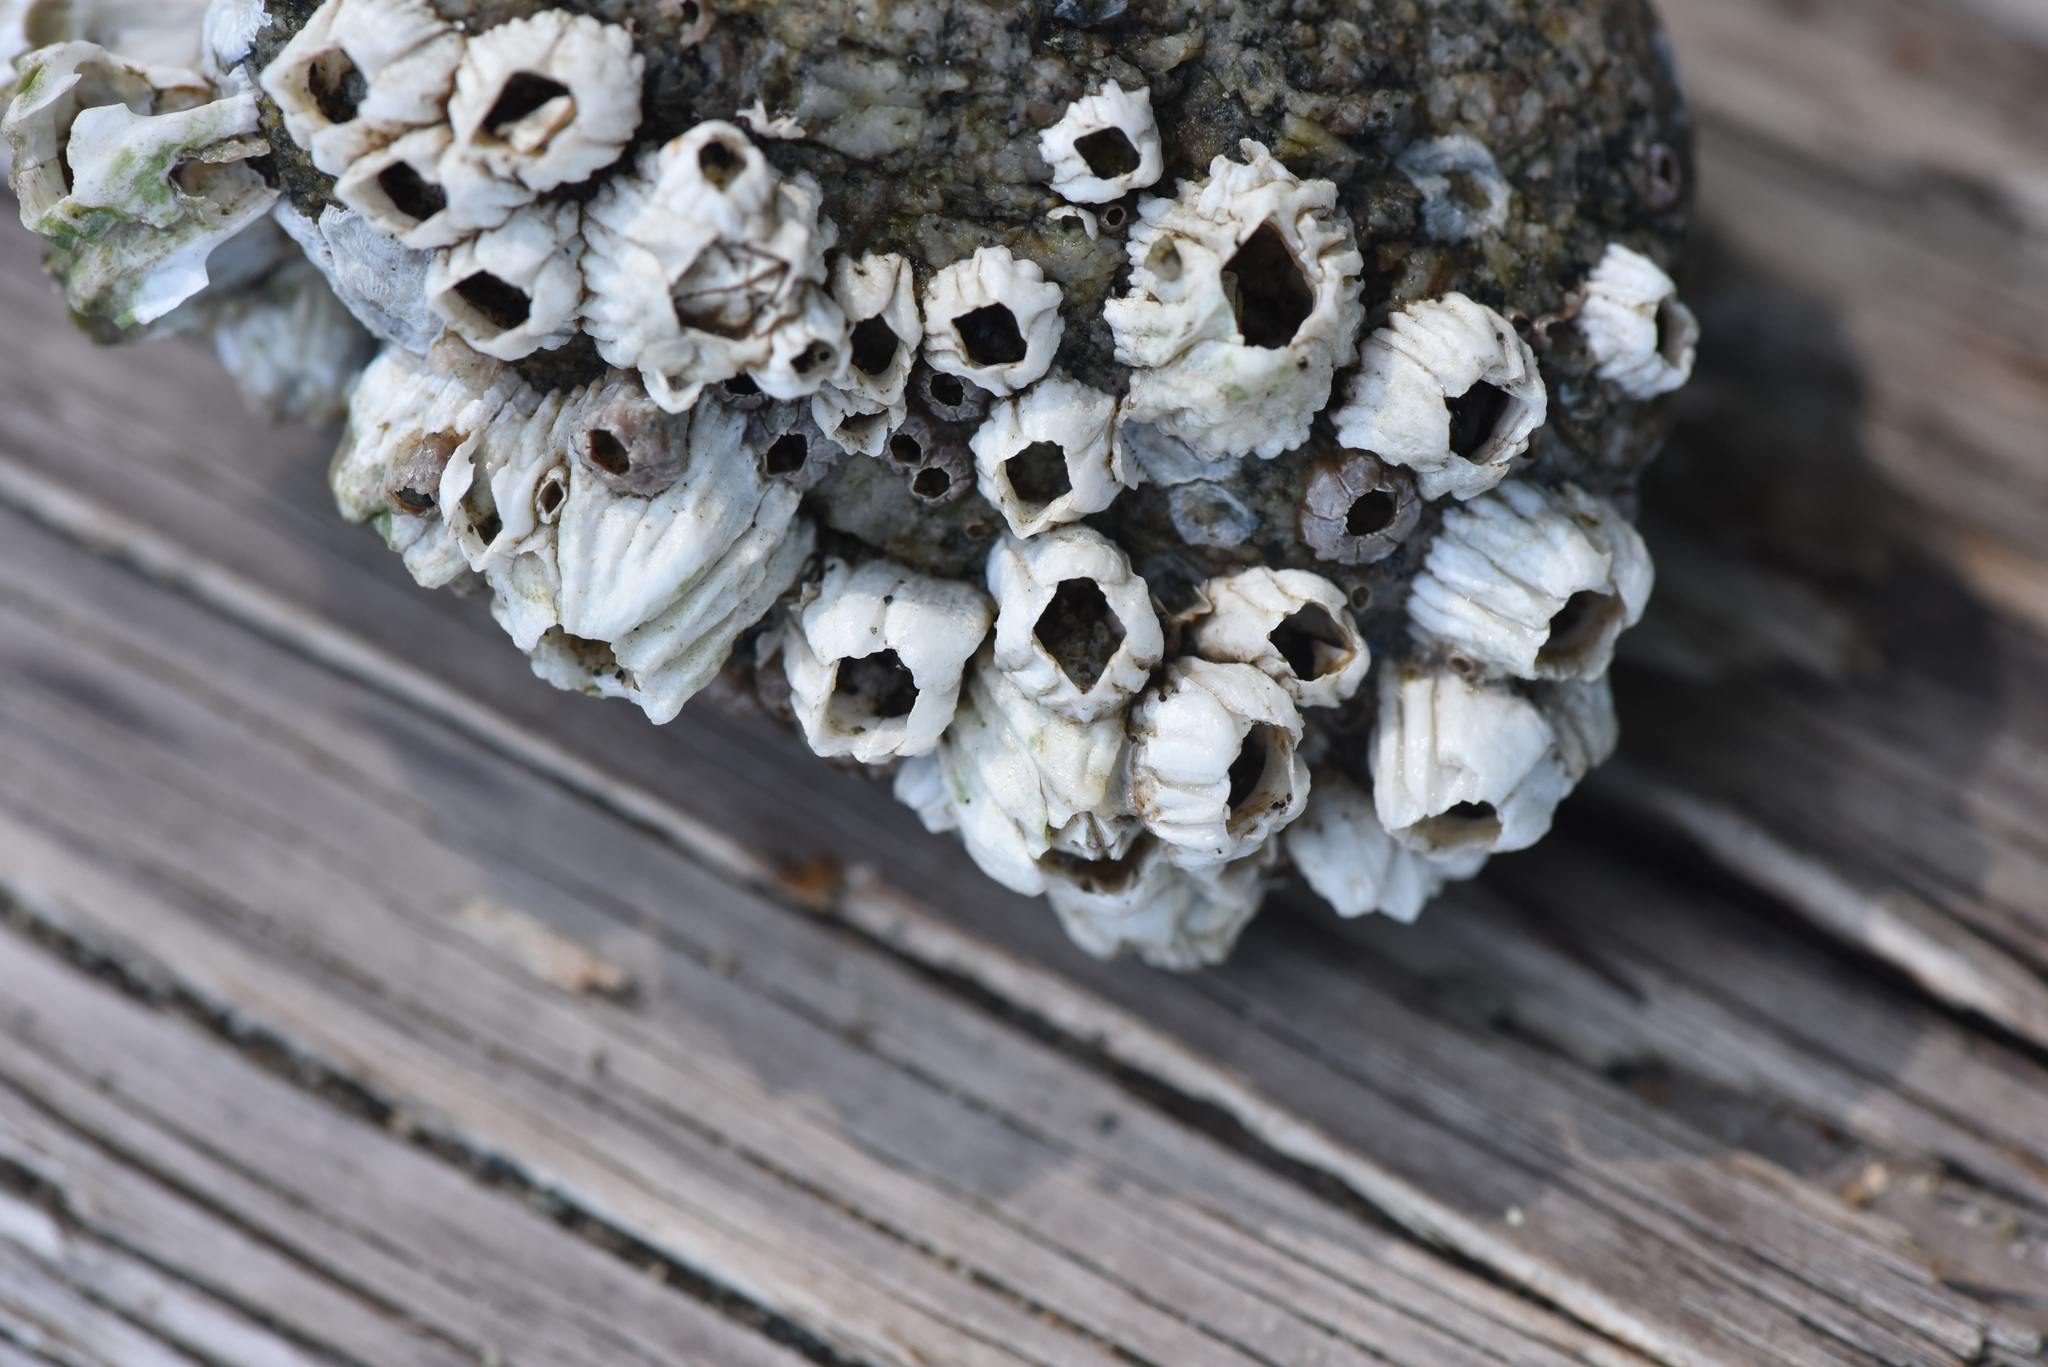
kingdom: Animalia
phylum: Arthropoda
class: Maxillopoda
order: Sessilia
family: Balanidae
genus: Balanus
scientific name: Balanus glandula
